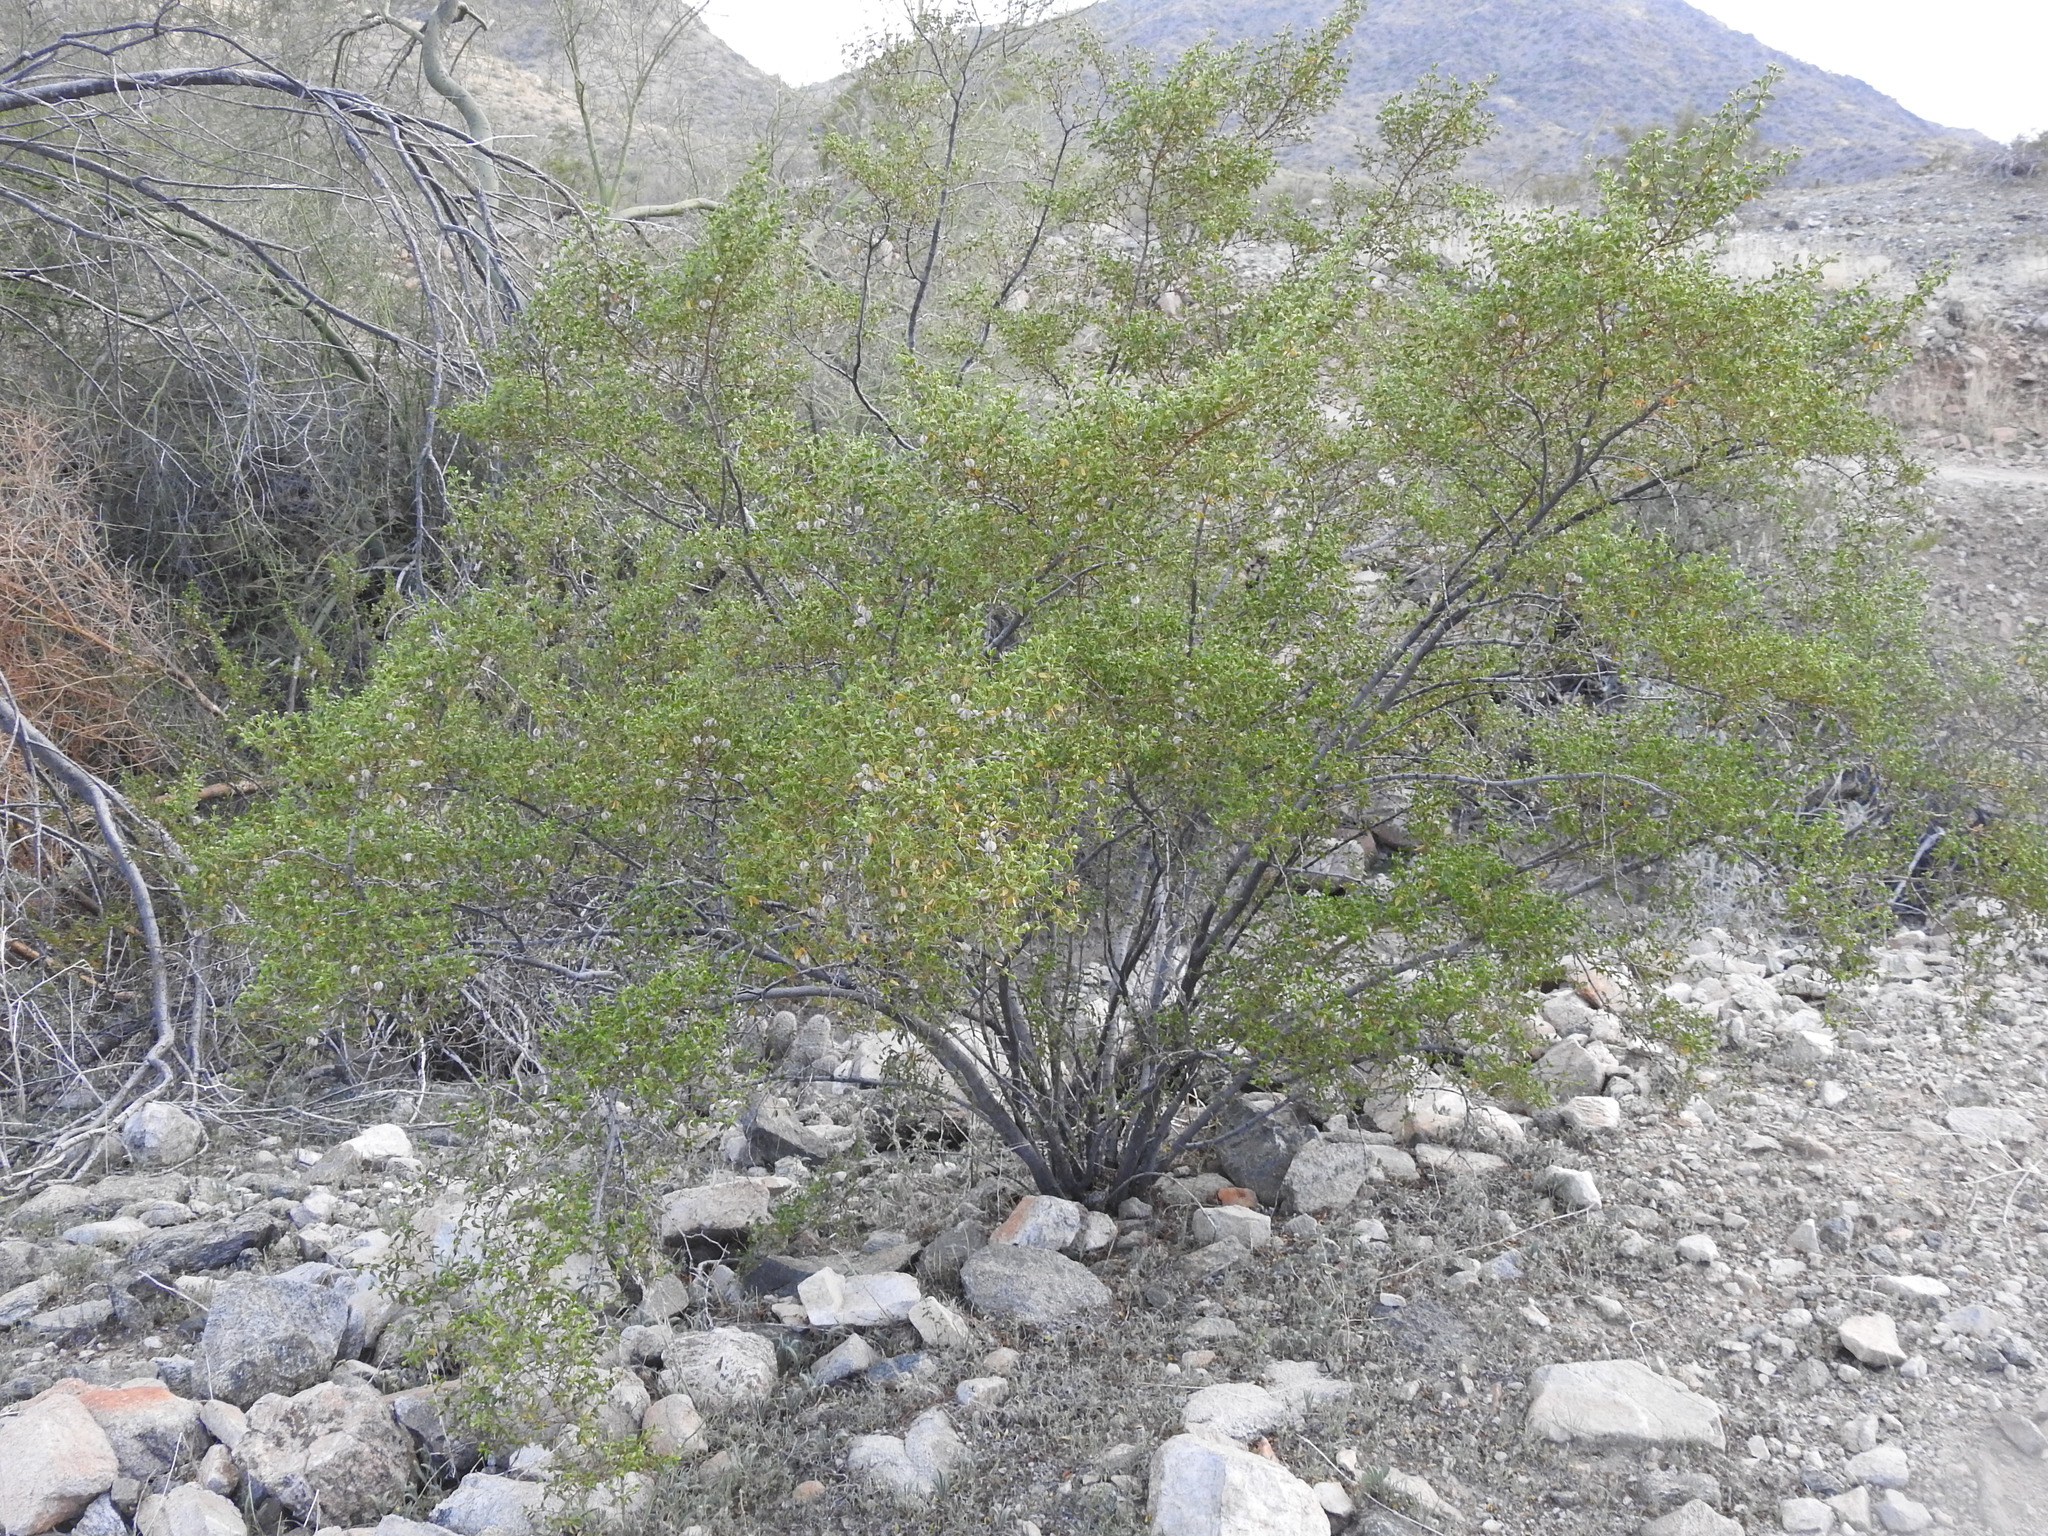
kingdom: Plantae
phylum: Tracheophyta
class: Magnoliopsida
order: Zygophyllales
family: Zygophyllaceae
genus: Larrea
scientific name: Larrea tridentata
